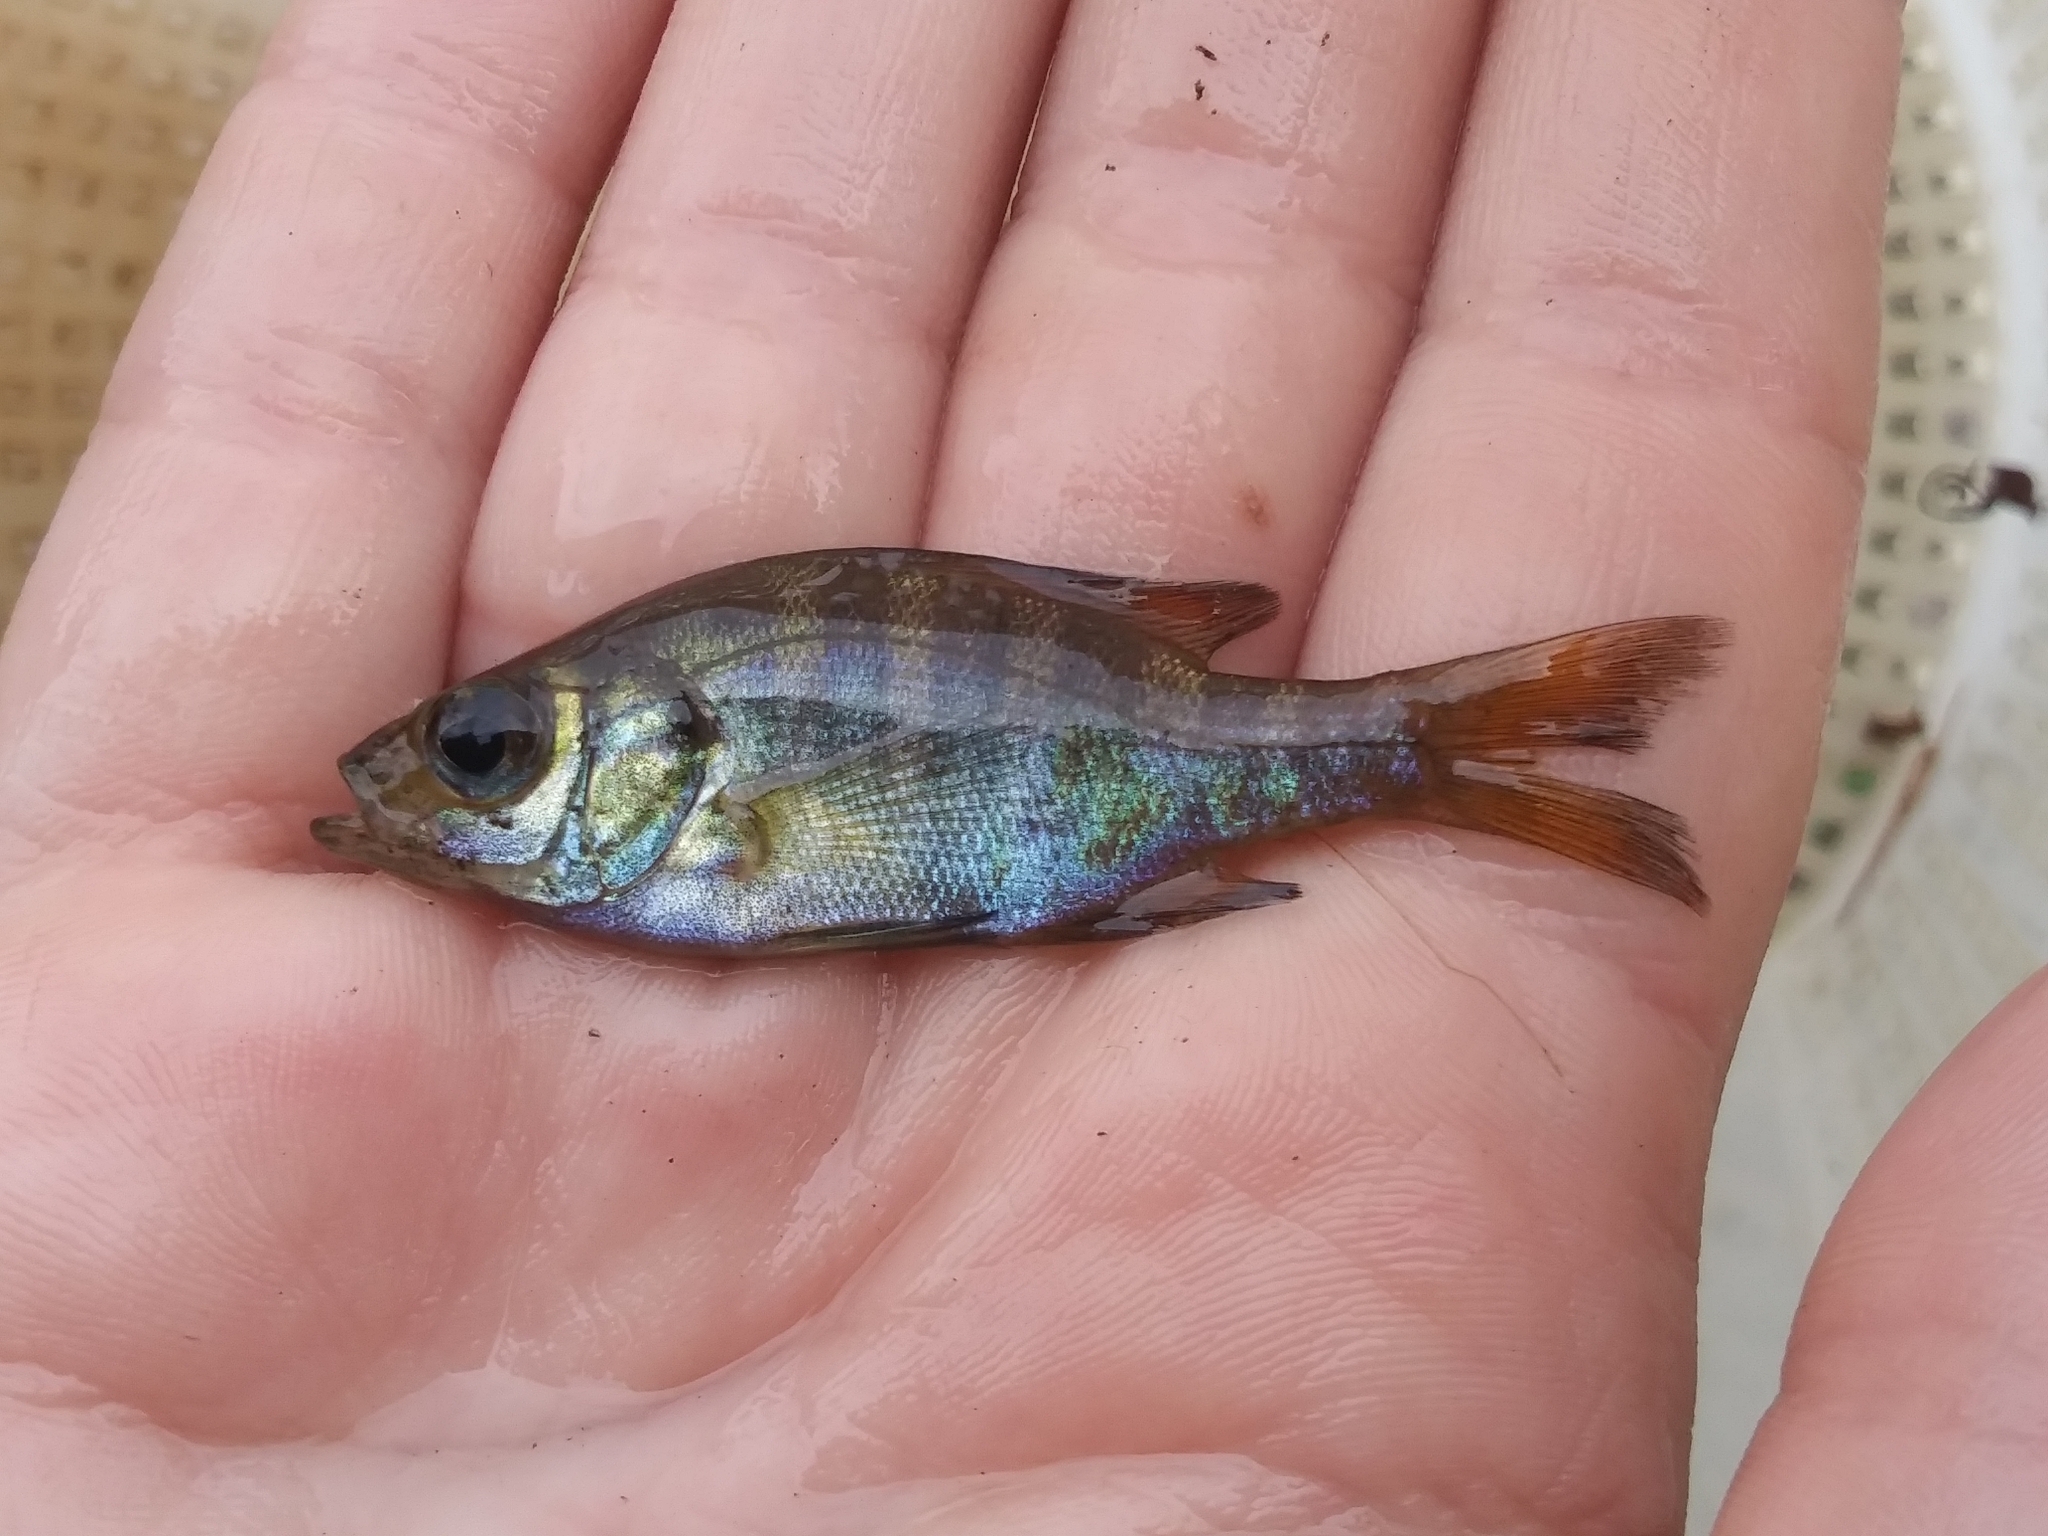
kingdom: Animalia
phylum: Chordata
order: Perciformes
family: Centrarchidae
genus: Lepomis
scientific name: Lepomis macrochirus
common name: Bluegill
